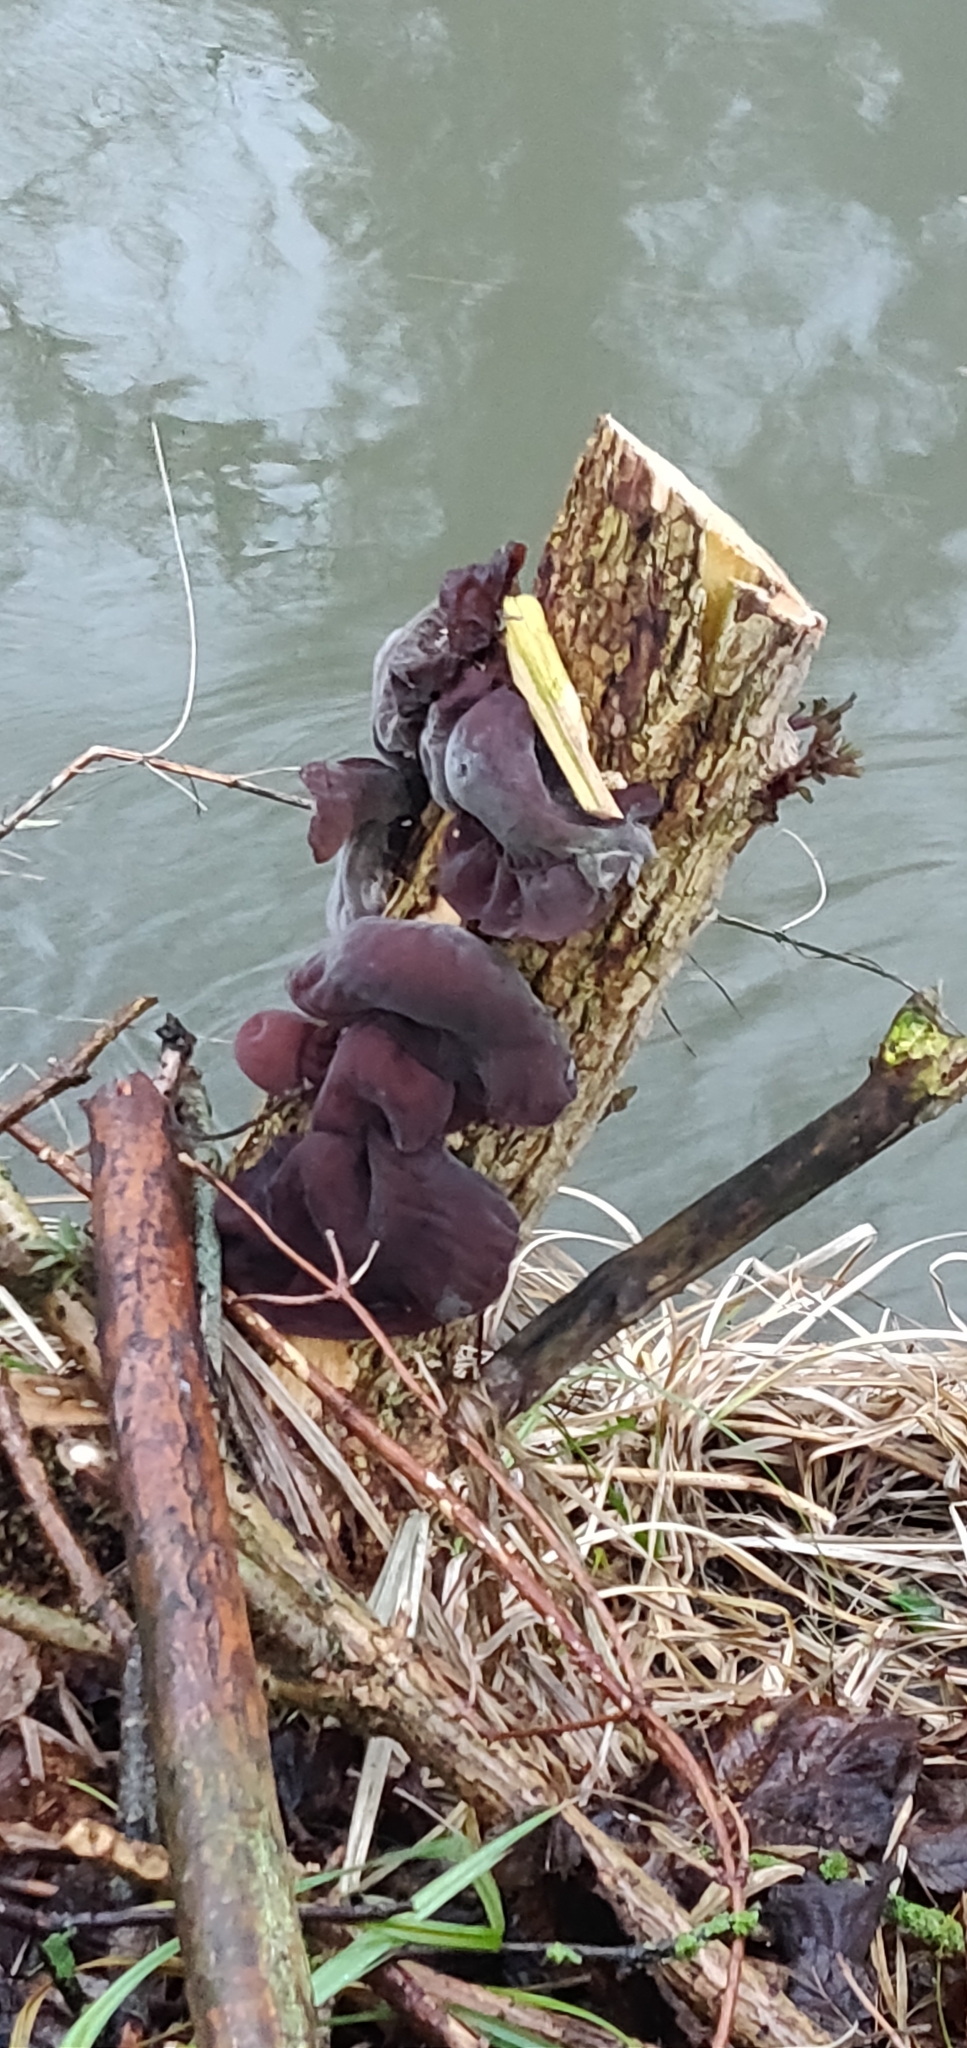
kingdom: Fungi
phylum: Basidiomycota
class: Agaricomycetes
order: Auriculariales
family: Auriculariaceae
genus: Auricularia
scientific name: Auricularia auricula-judae
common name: Jelly ear
